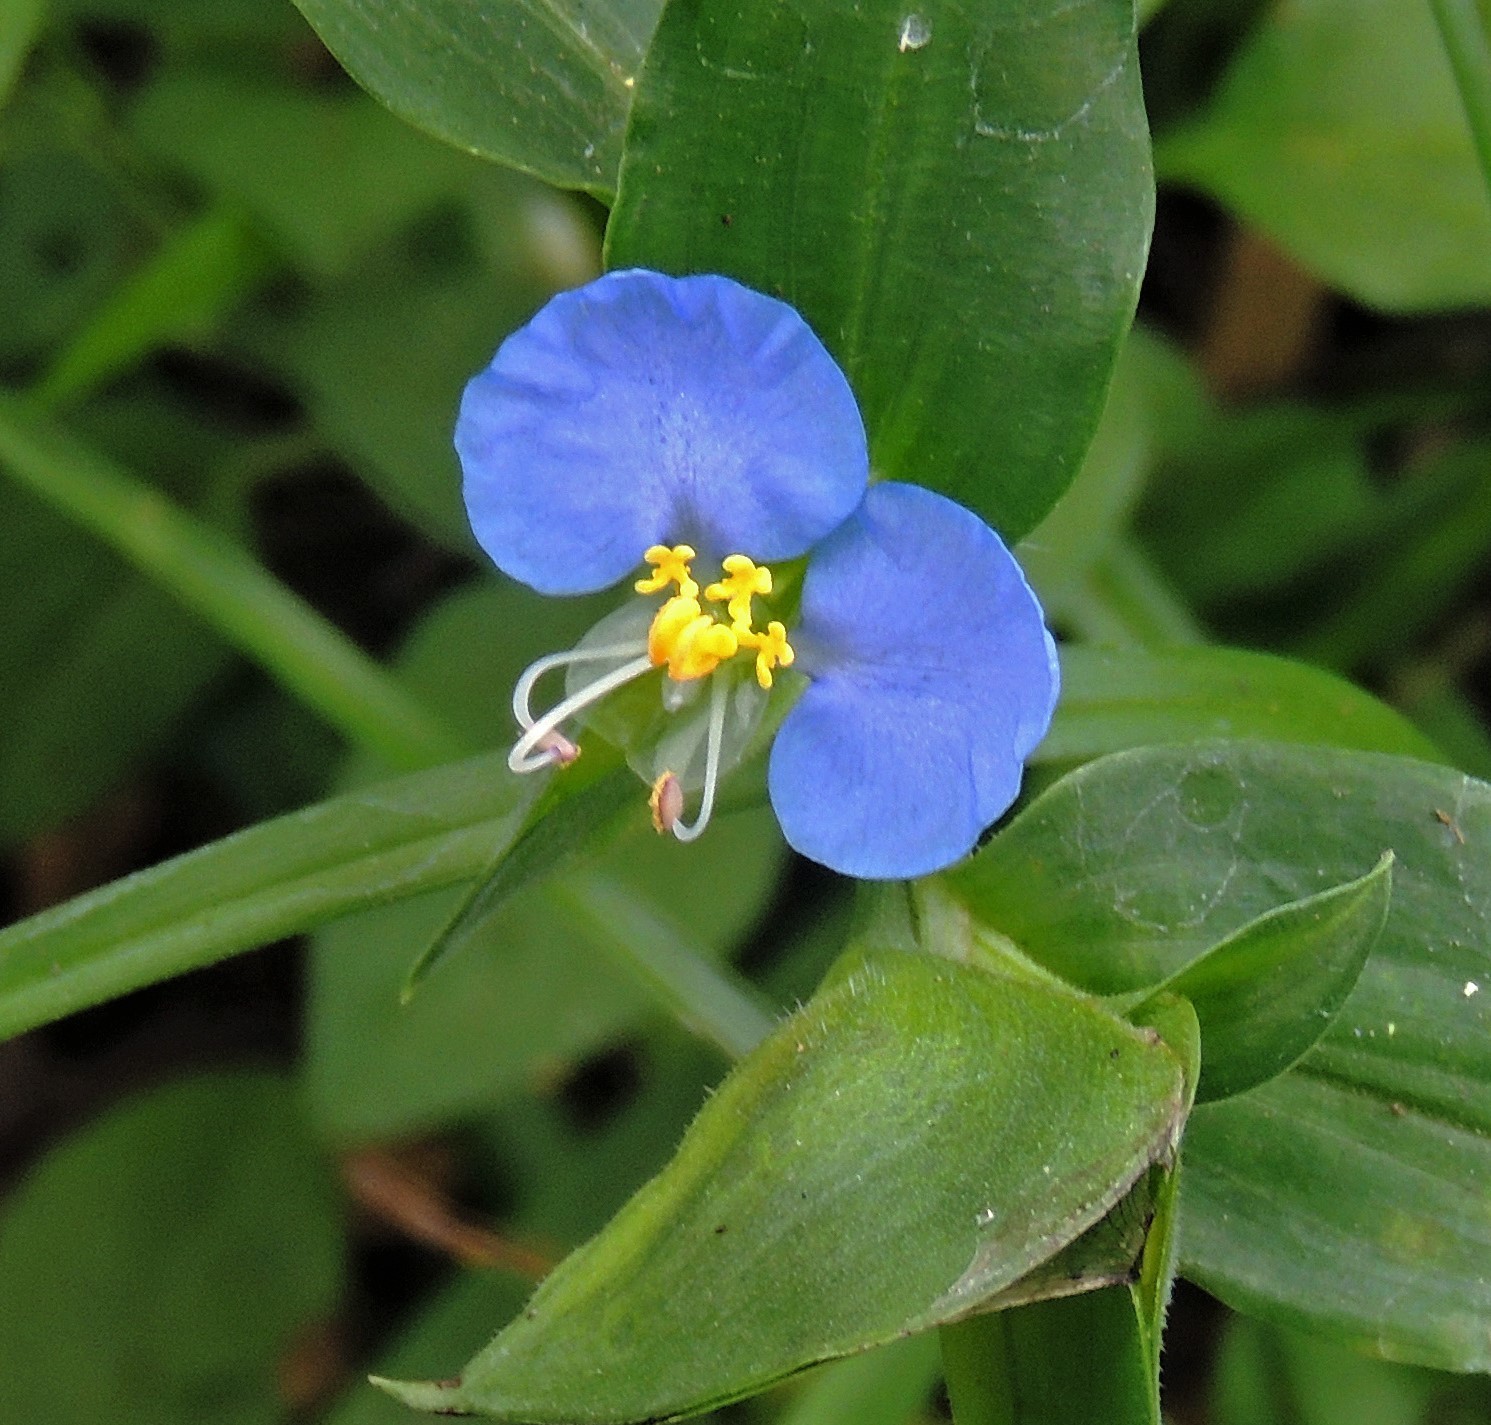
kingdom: Plantae
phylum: Tracheophyta
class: Liliopsida
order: Commelinales
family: Commelinaceae
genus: Commelina
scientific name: Commelina erecta
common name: Blousel blommetjie
